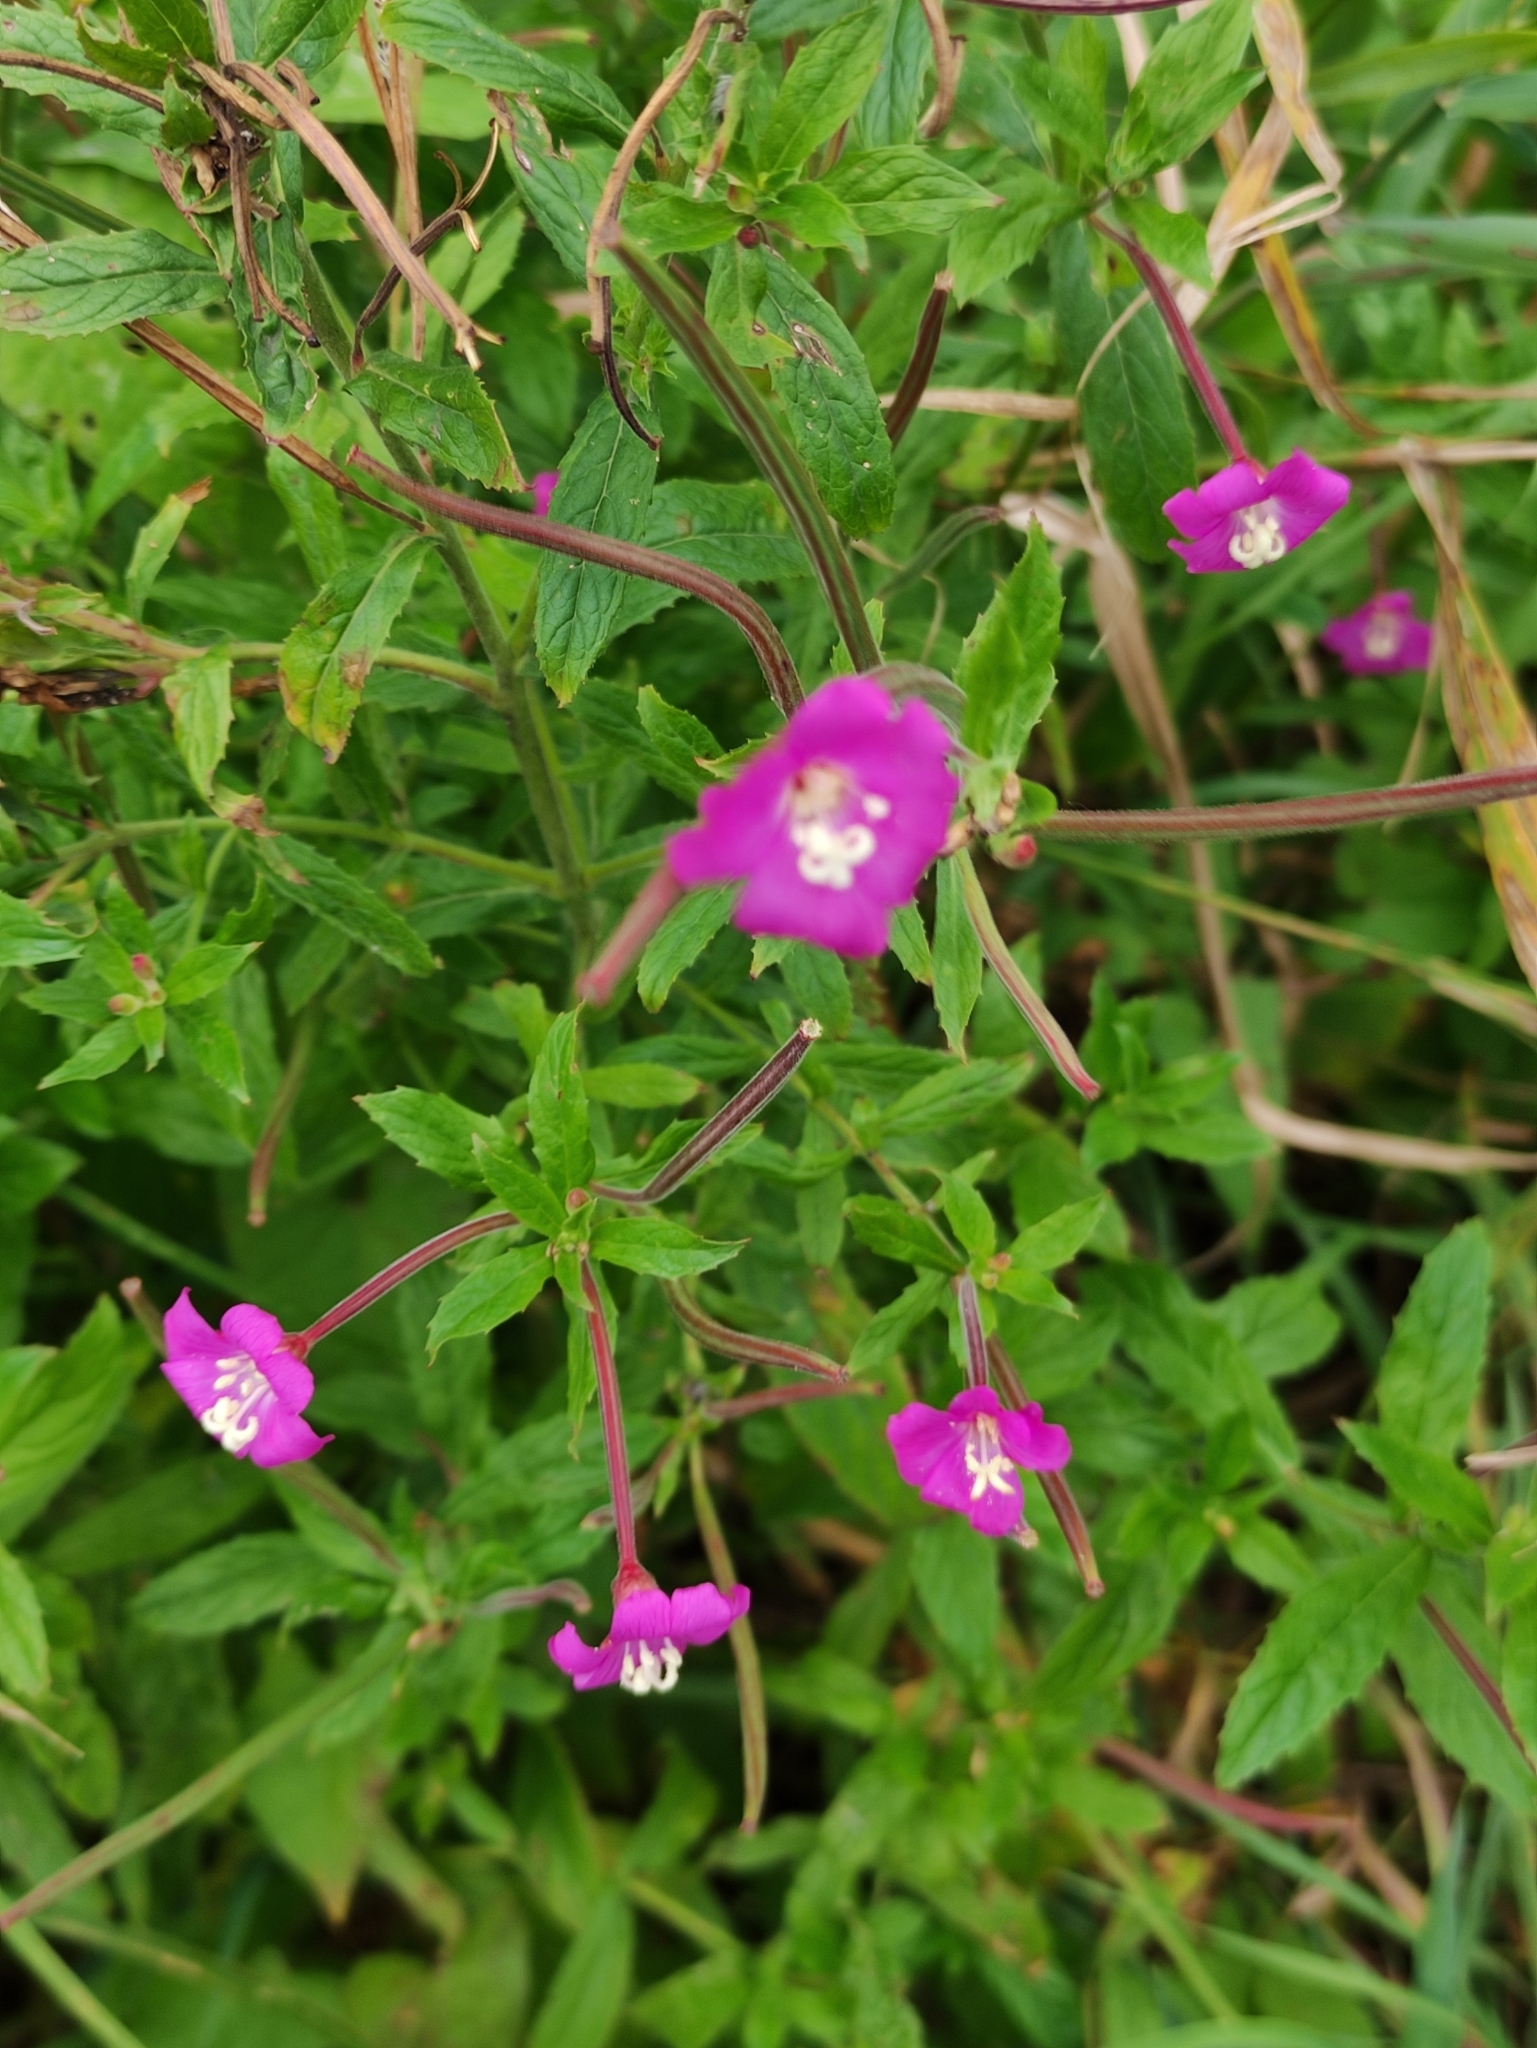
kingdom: Plantae
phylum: Tracheophyta
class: Magnoliopsida
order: Myrtales
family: Onagraceae
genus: Epilobium
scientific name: Epilobium hirsutum
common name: Great willowherb
